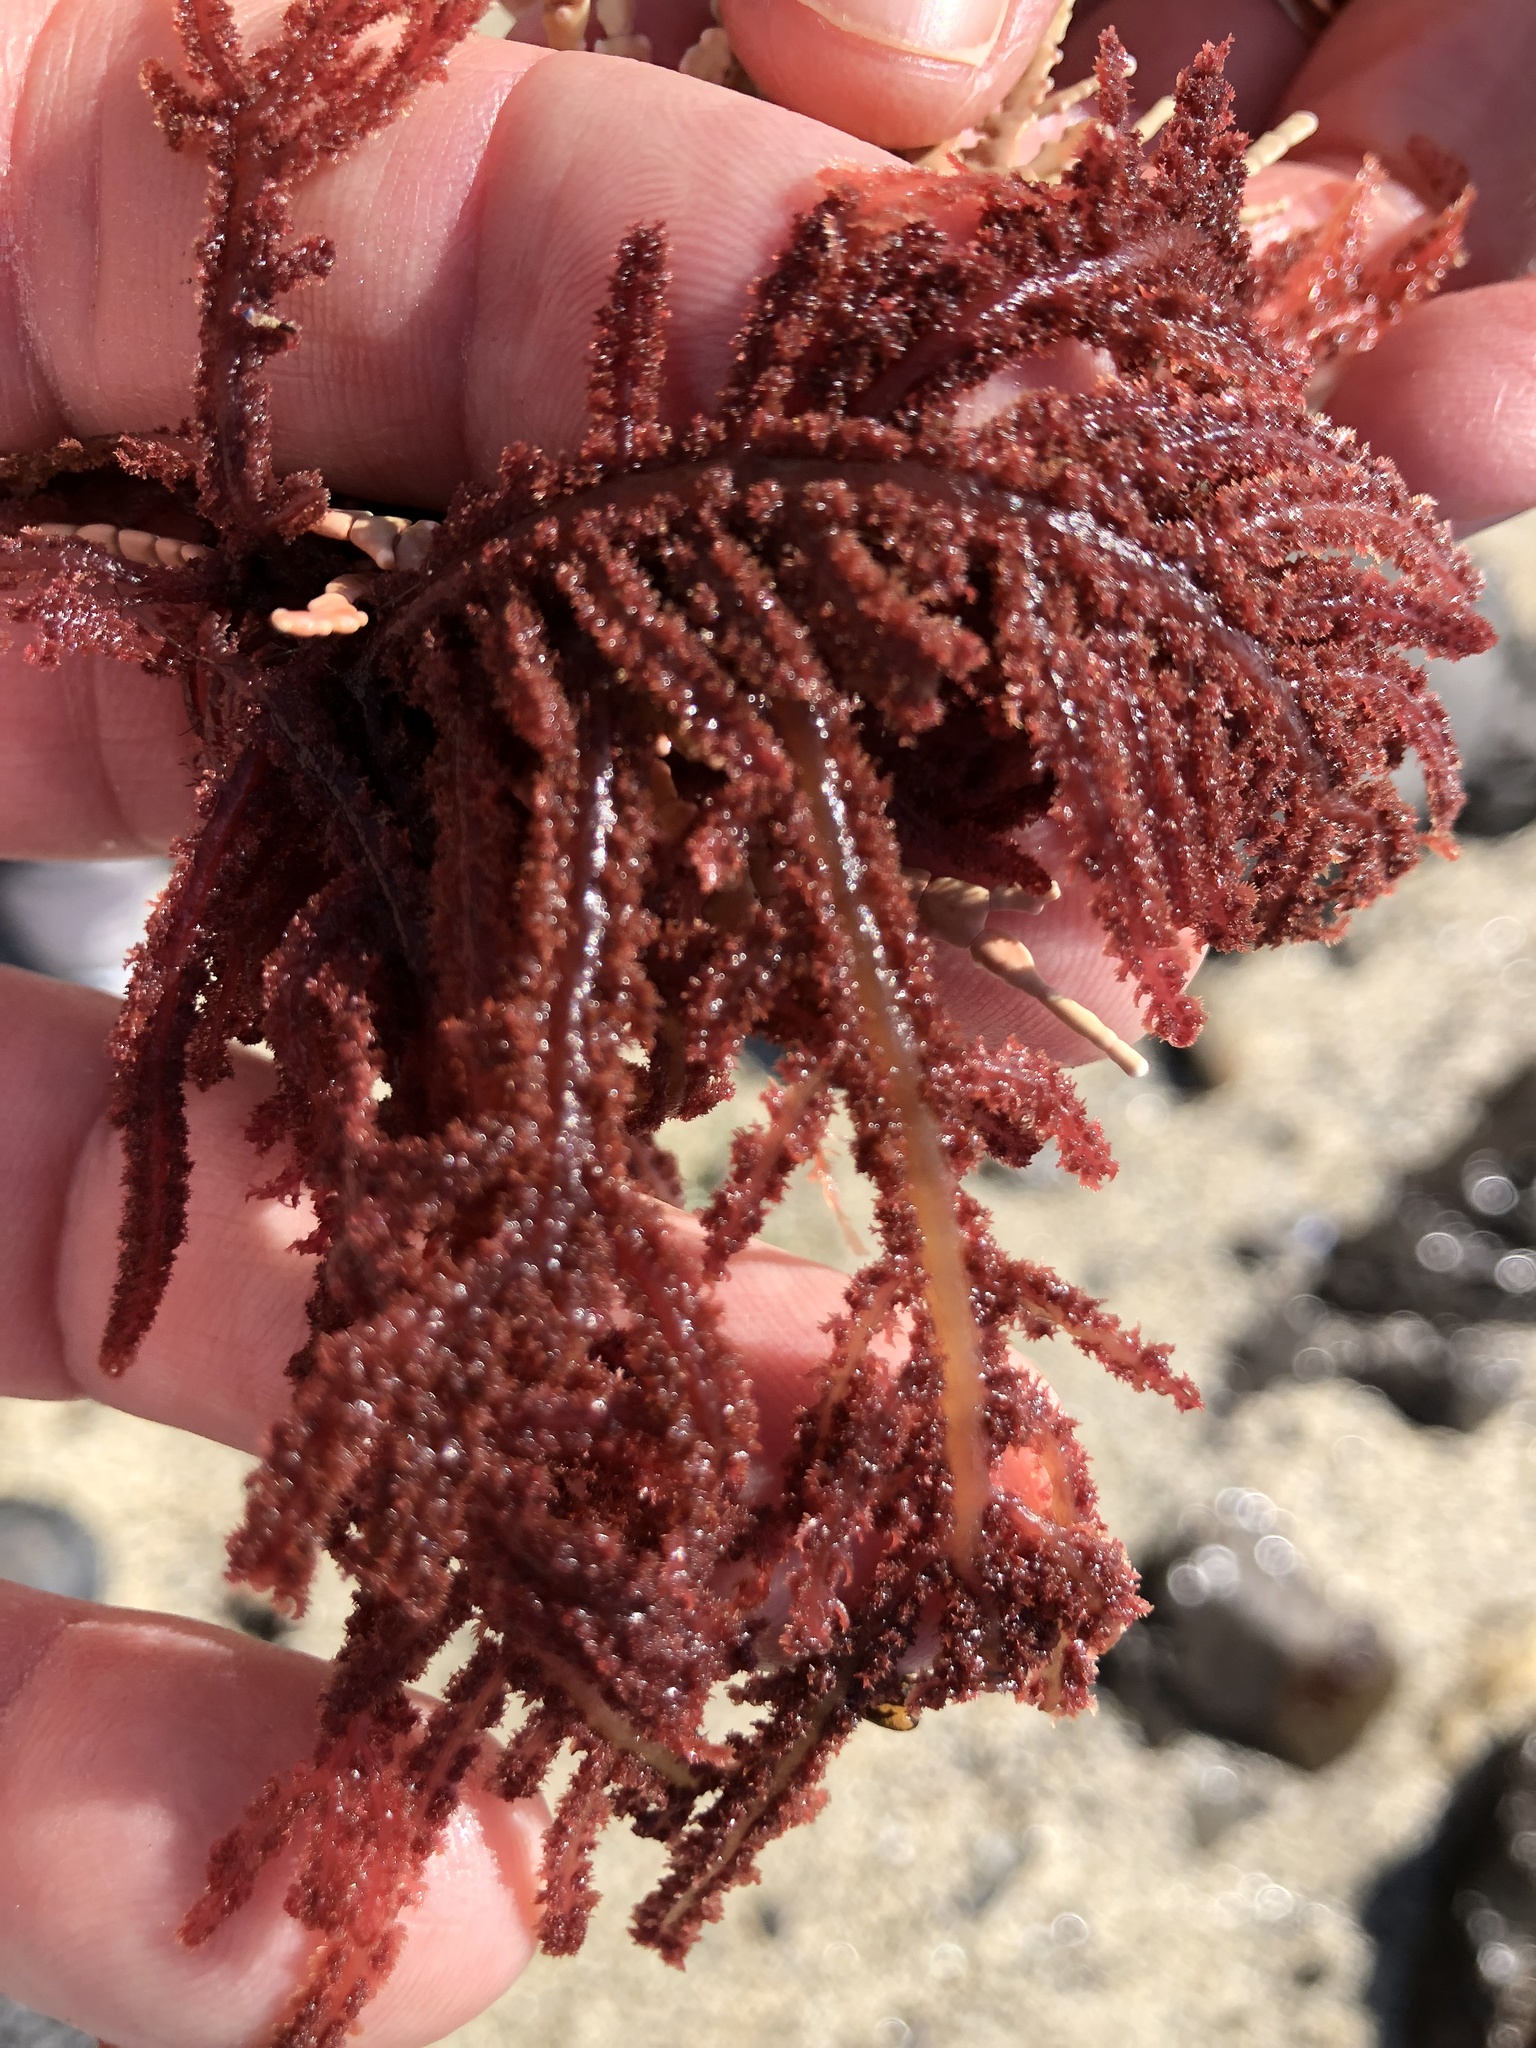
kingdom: Plantae
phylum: Rhodophyta
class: Florideophyceae
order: Ceramiales
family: Wrangeliaceae
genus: Neoptilota
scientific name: Neoptilota densa
